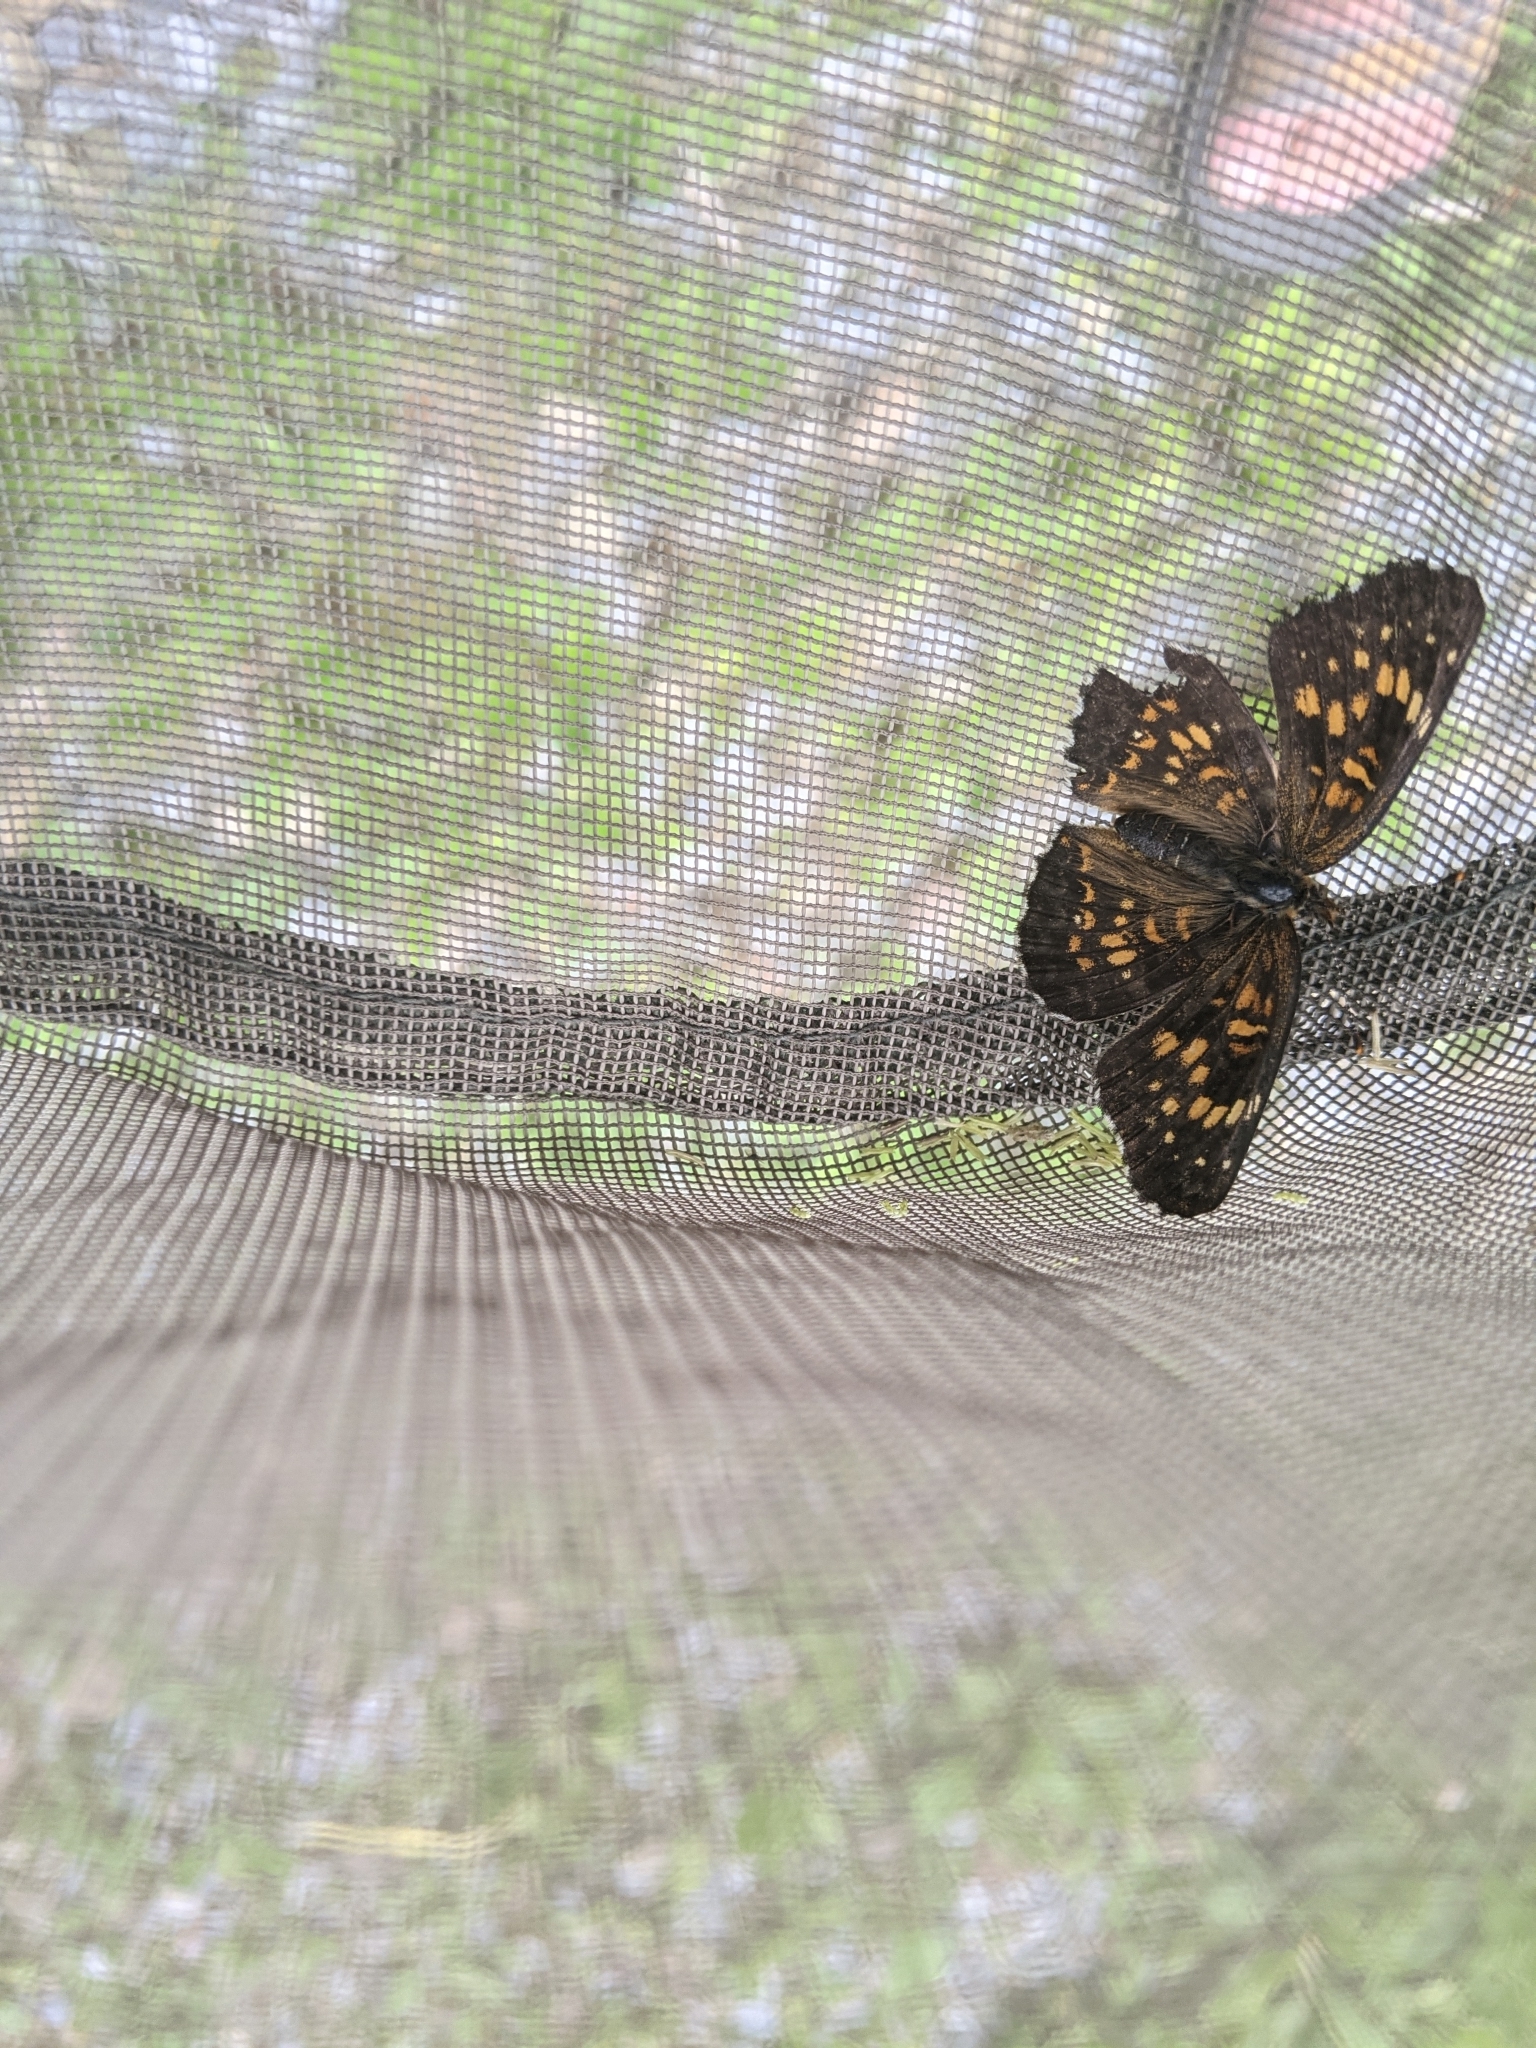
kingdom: Animalia
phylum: Arthropoda
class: Insecta
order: Lepidoptera
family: Nymphalidae
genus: Chlosyne
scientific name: Chlosyne harrisii
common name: Harris's checkerspot
